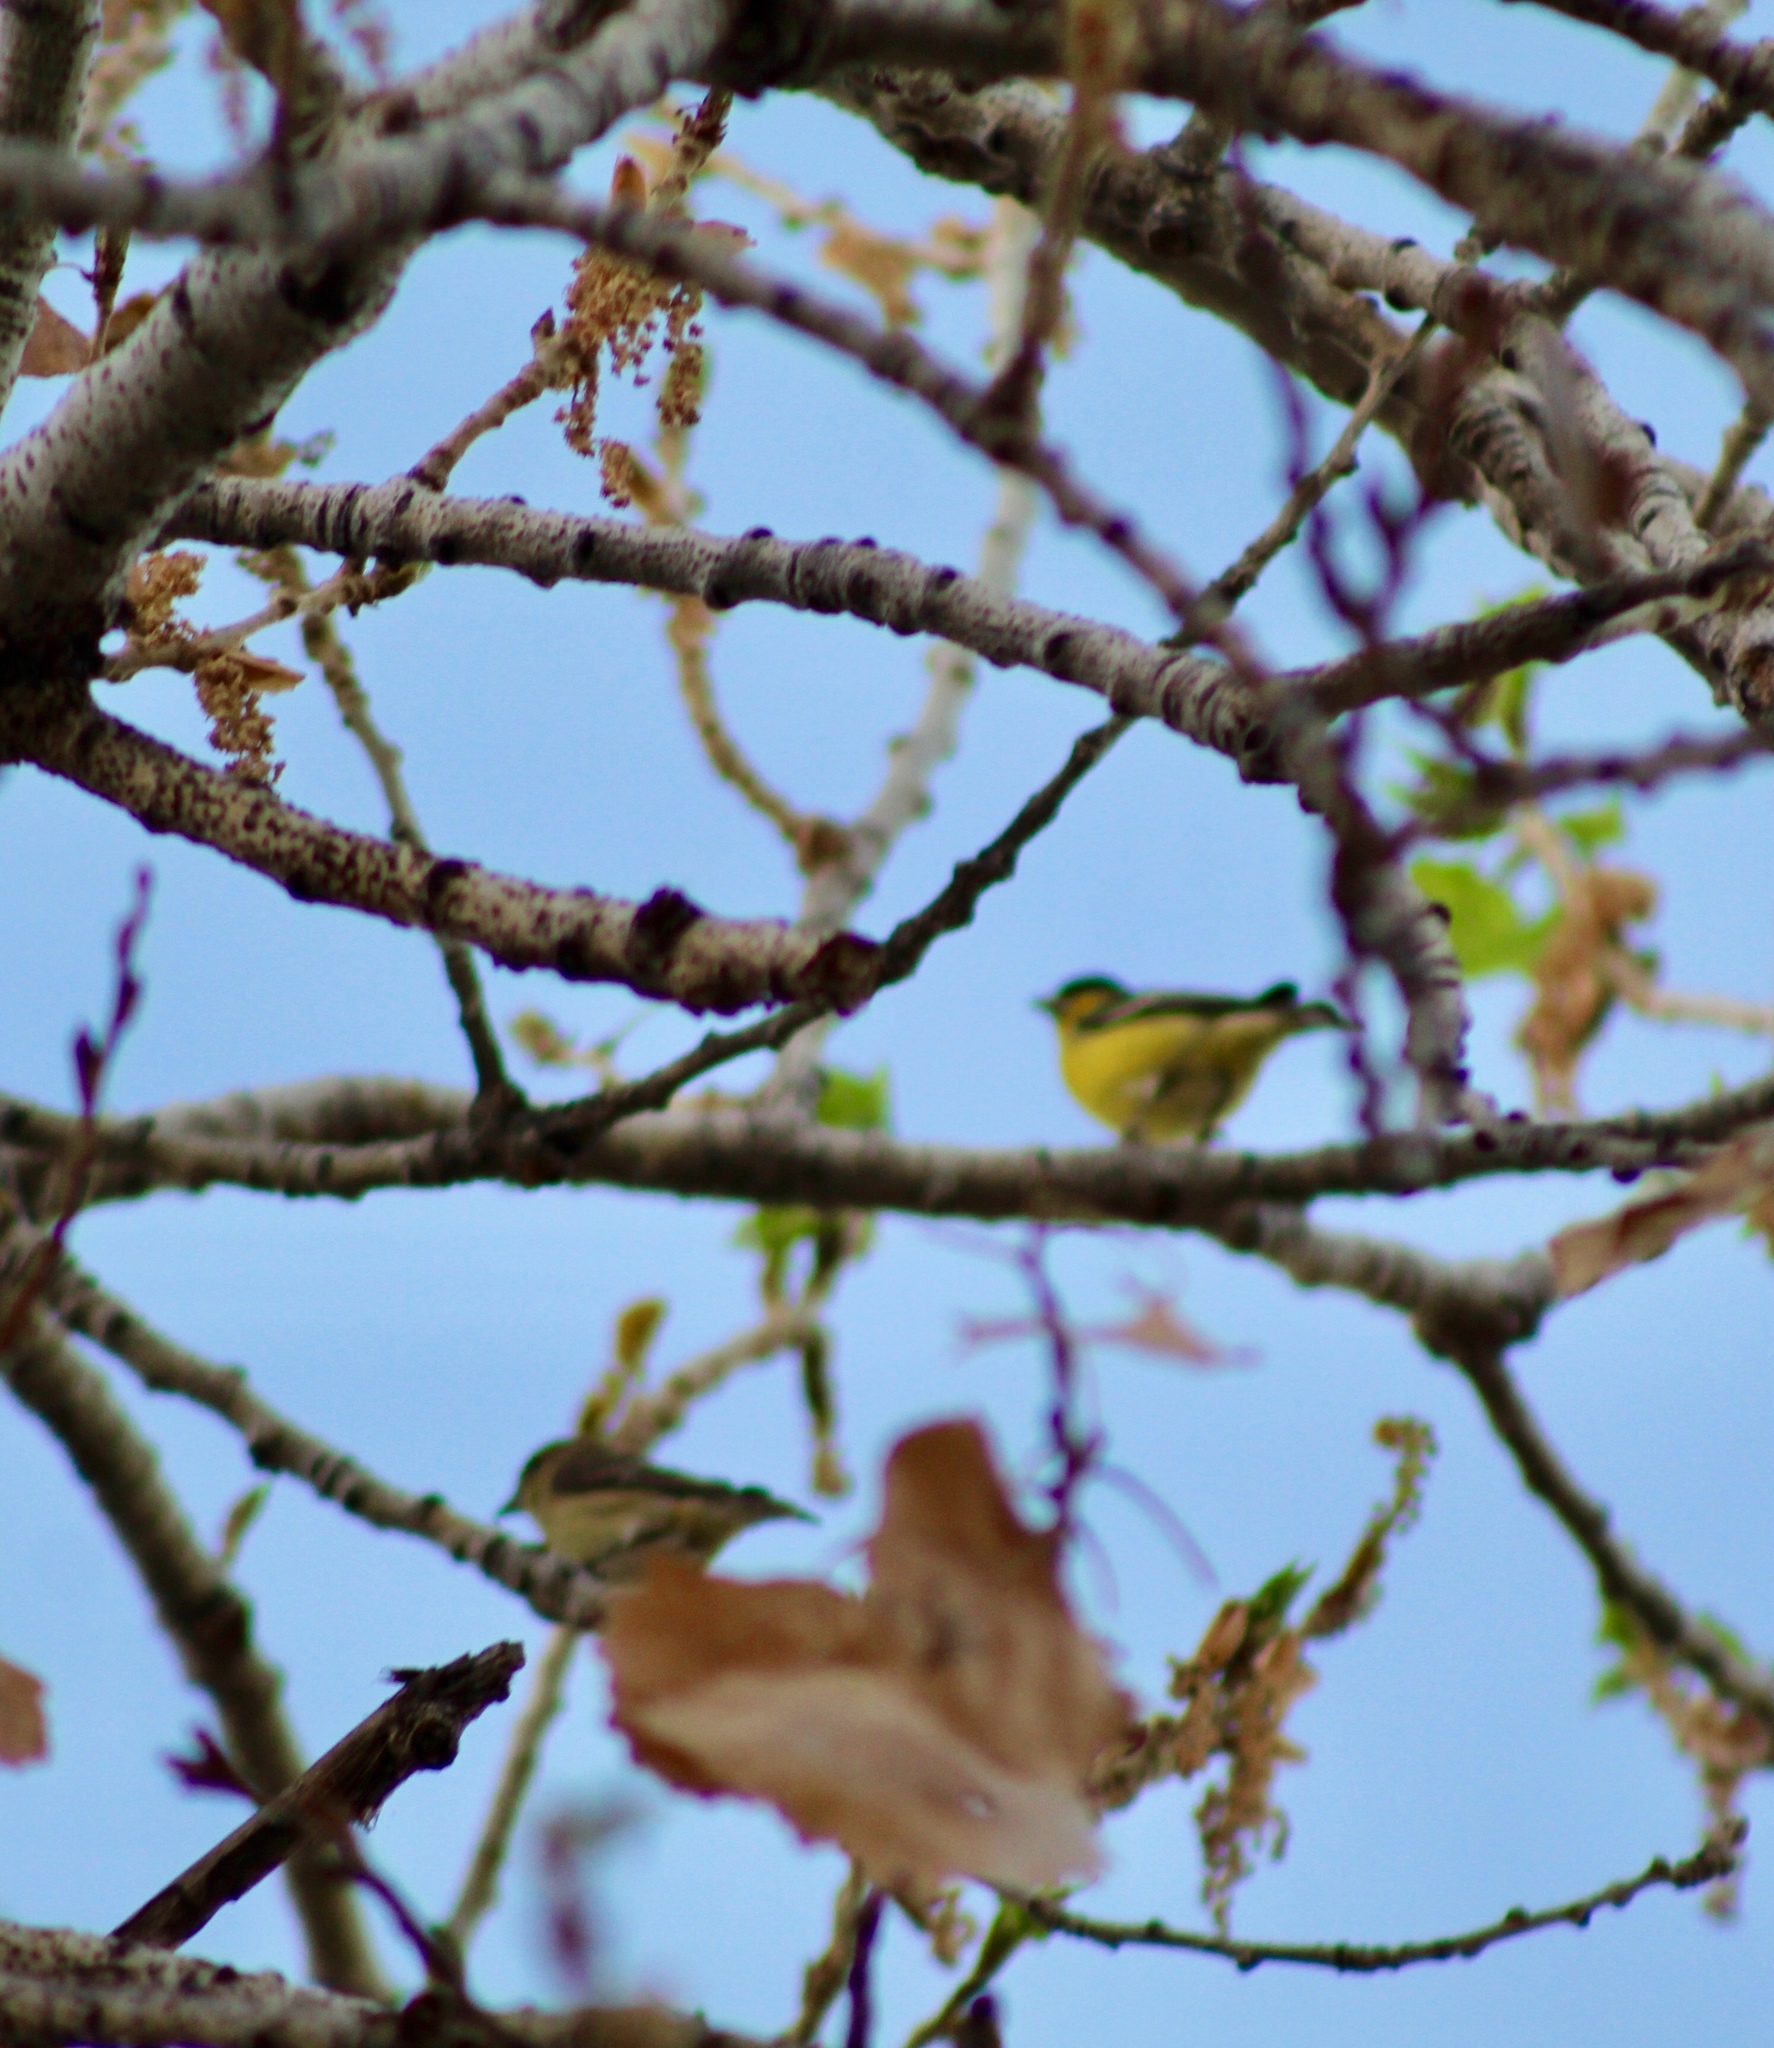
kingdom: Animalia
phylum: Chordata
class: Aves
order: Passeriformes
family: Fringillidae
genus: Spinus
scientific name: Spinus psaltria
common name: Lesser goldfinch
